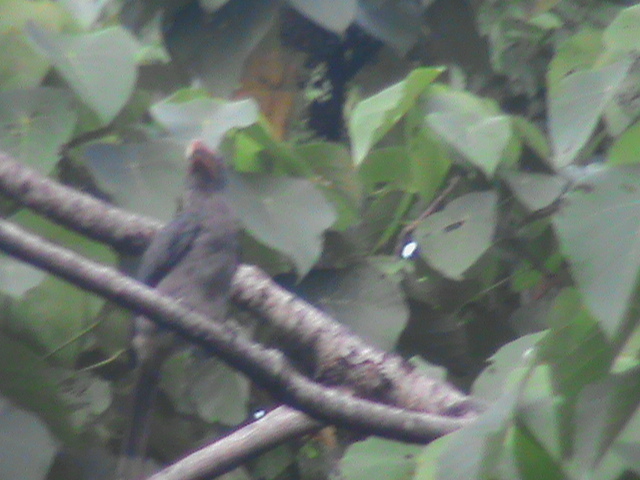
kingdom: Animalia
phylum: Chordata
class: Aves
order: Bucerotiformes
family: Bucerotidae
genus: Ocyceros
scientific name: Ocyceros griseus
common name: Malabar grey hornbill
